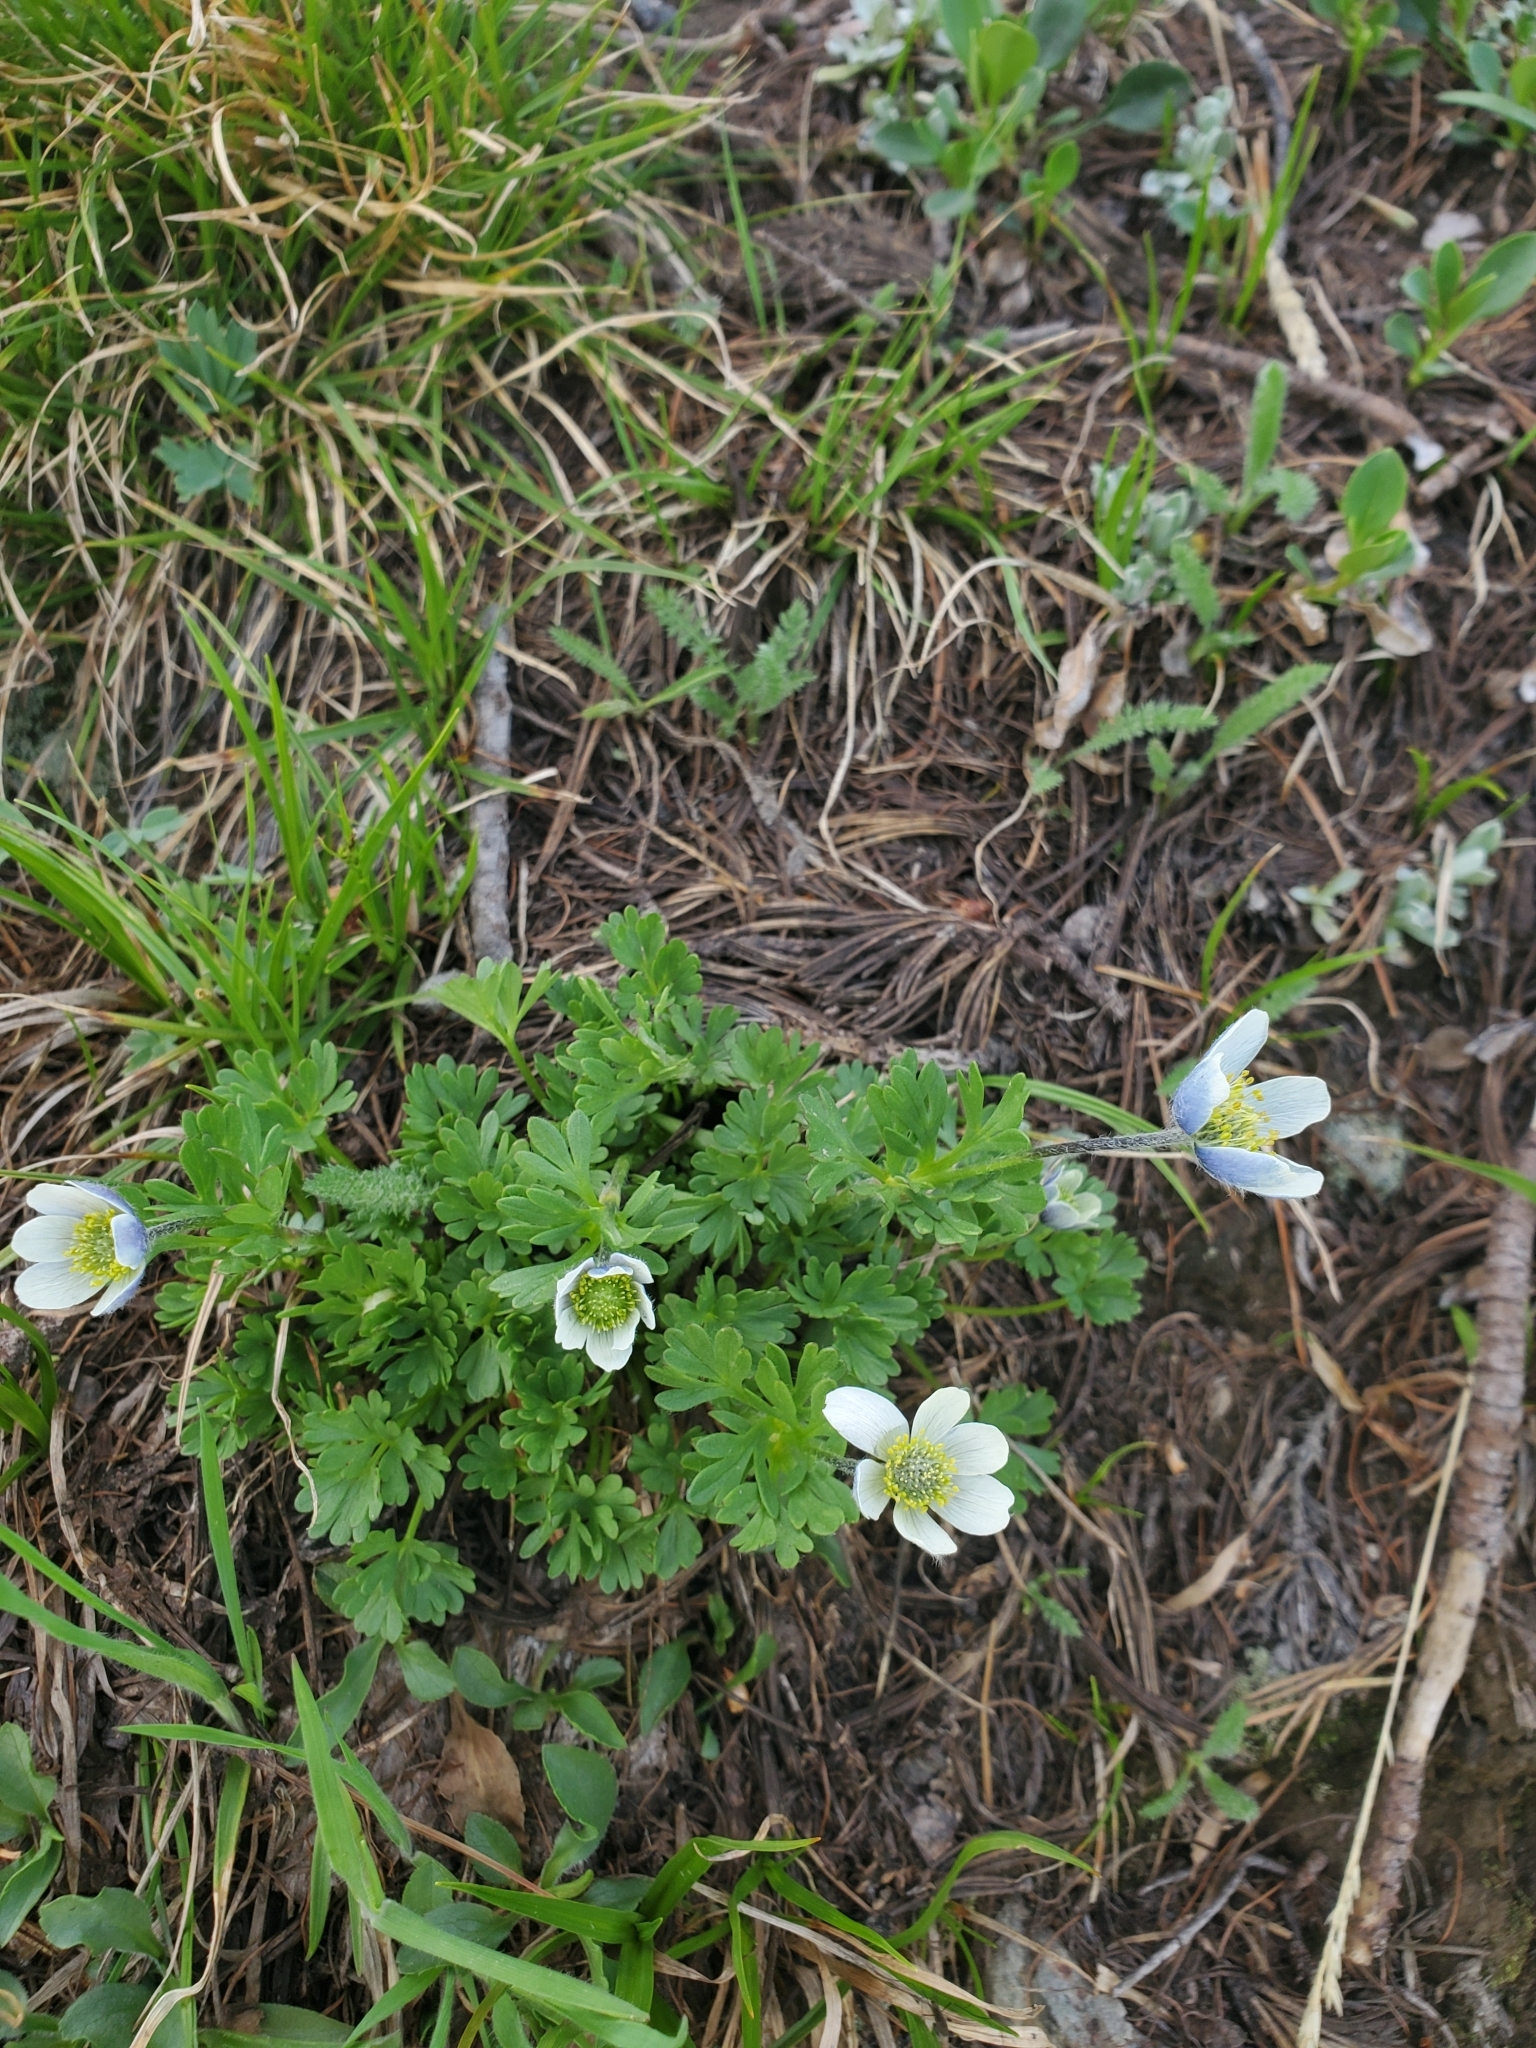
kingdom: Plantae
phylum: Tracheophyta
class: Magnoliopsida
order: Ranunculales
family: Ranunculaceae
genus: Anemone
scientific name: Anemone drummondii
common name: Drummond's anemone
